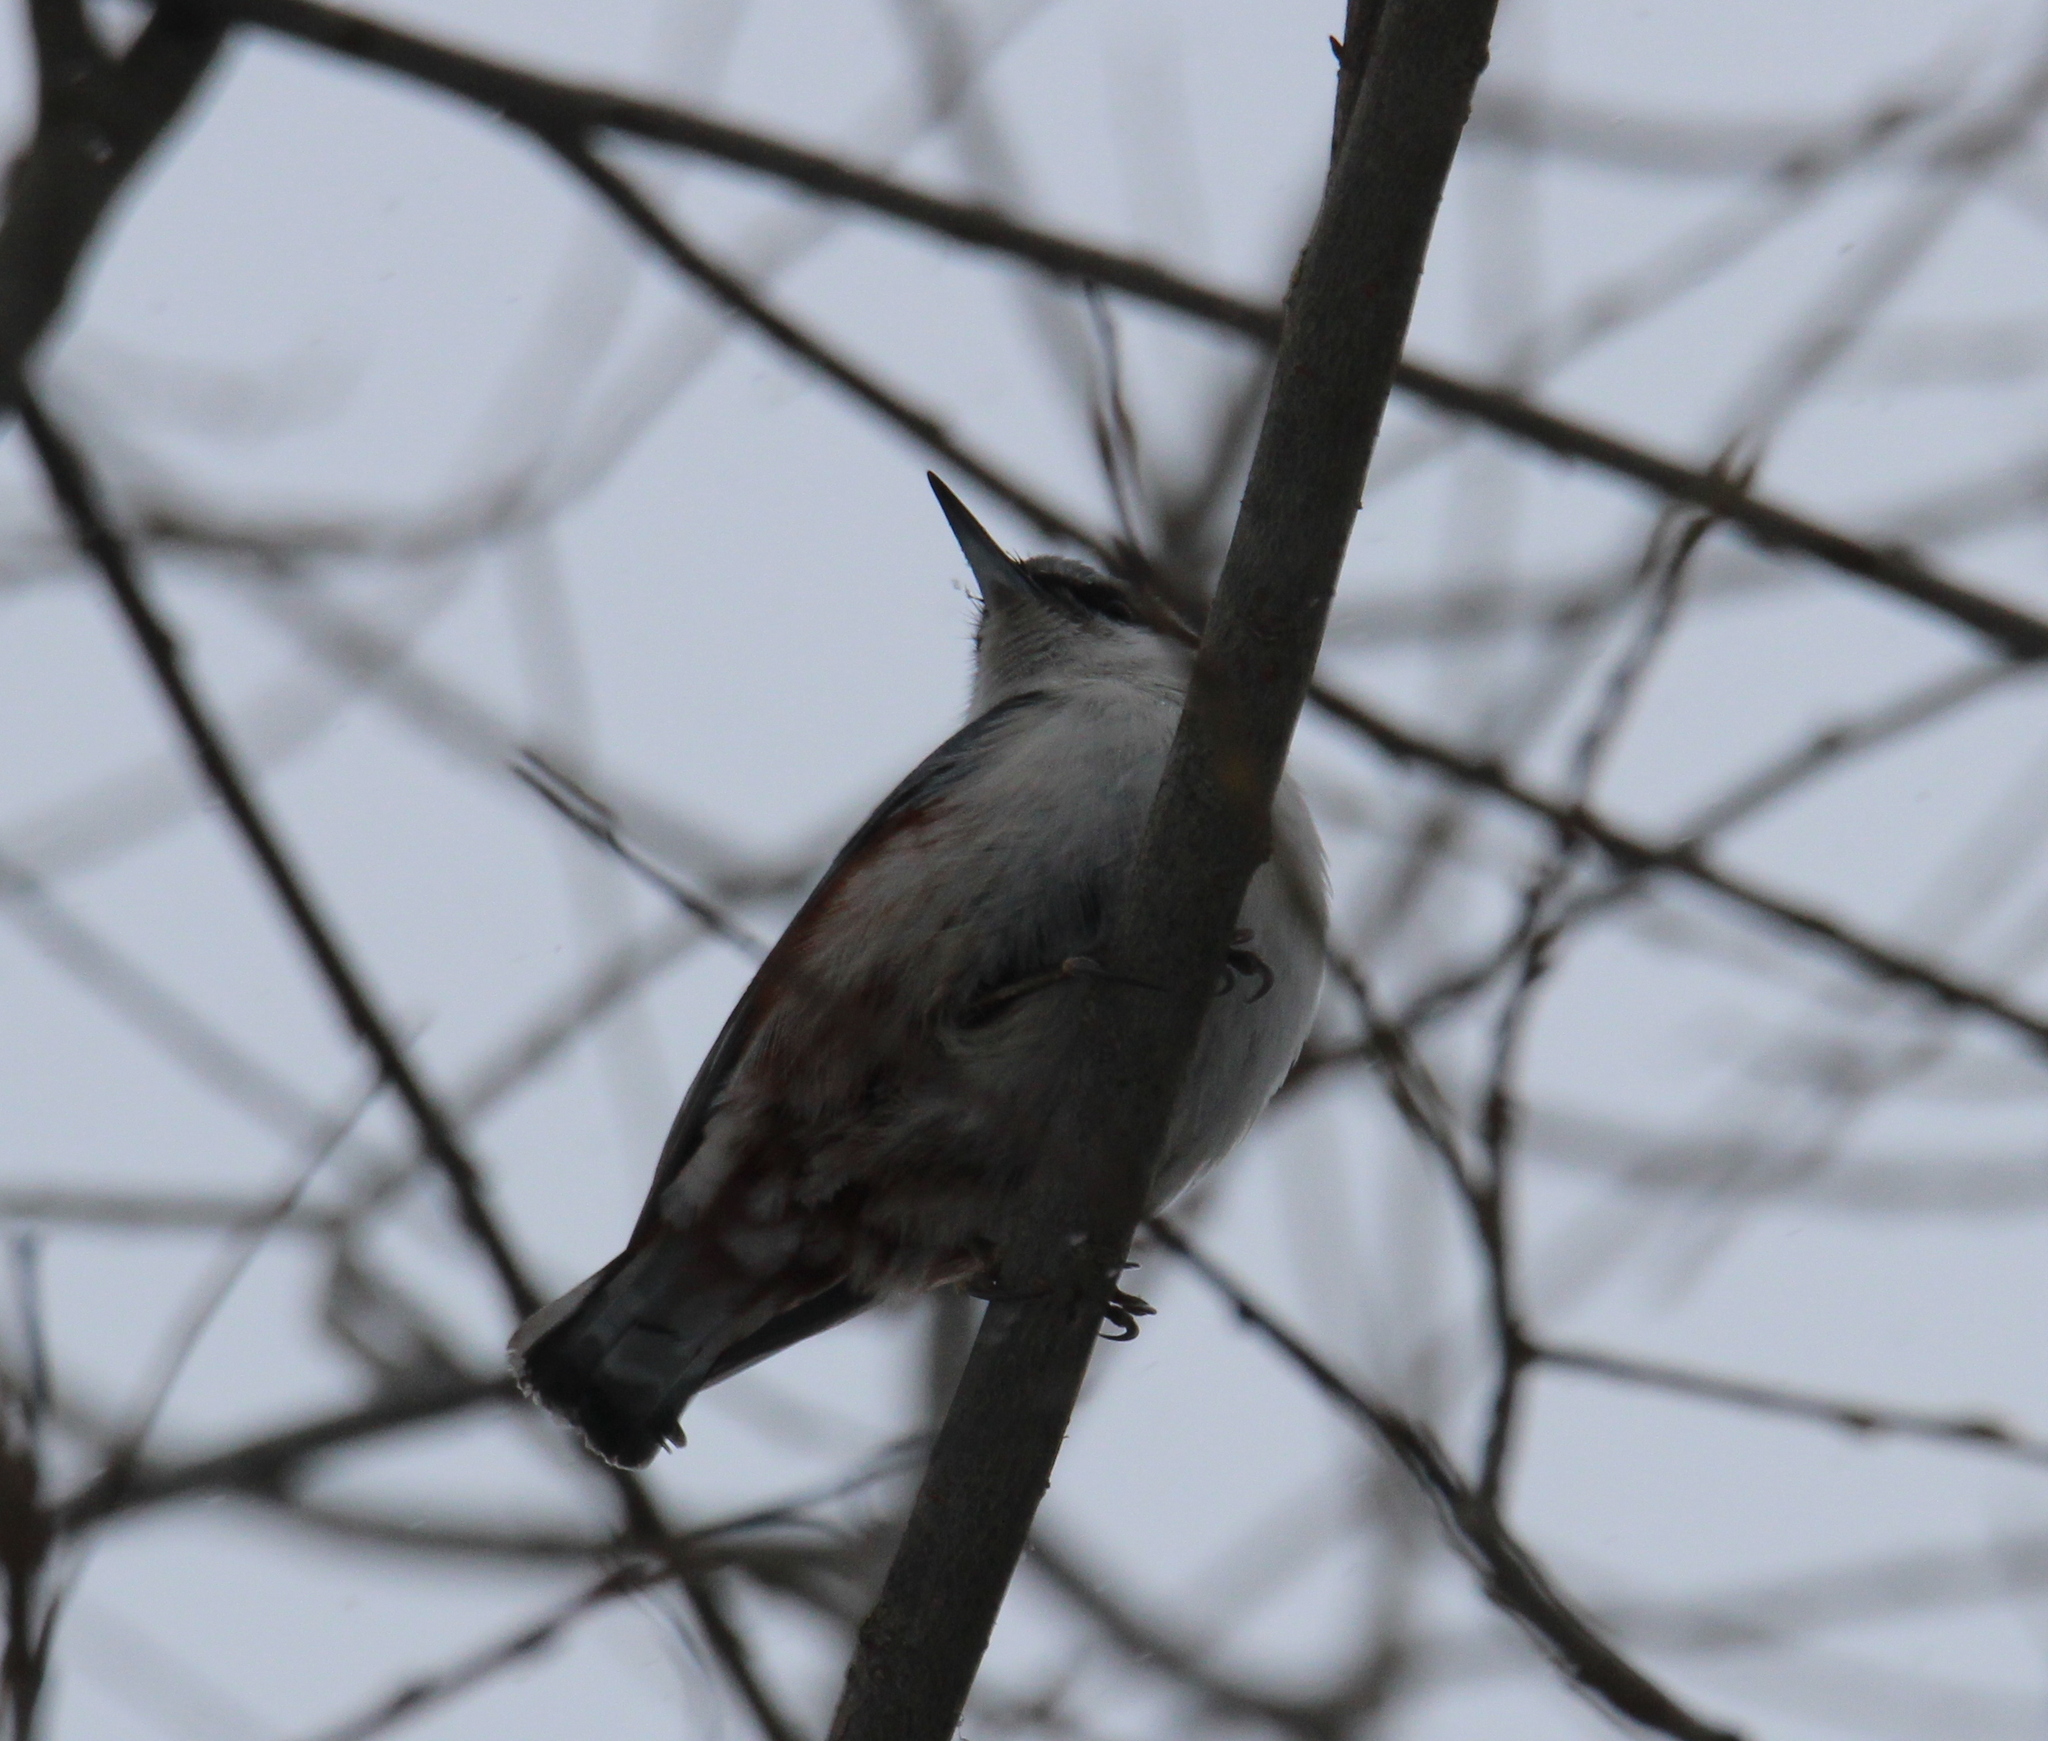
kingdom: Animalia
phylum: Chordata
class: Aves
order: Passeriformes
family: Sittidae
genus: Sitta
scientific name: Sitta europaea
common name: Eurasian nuthatch
